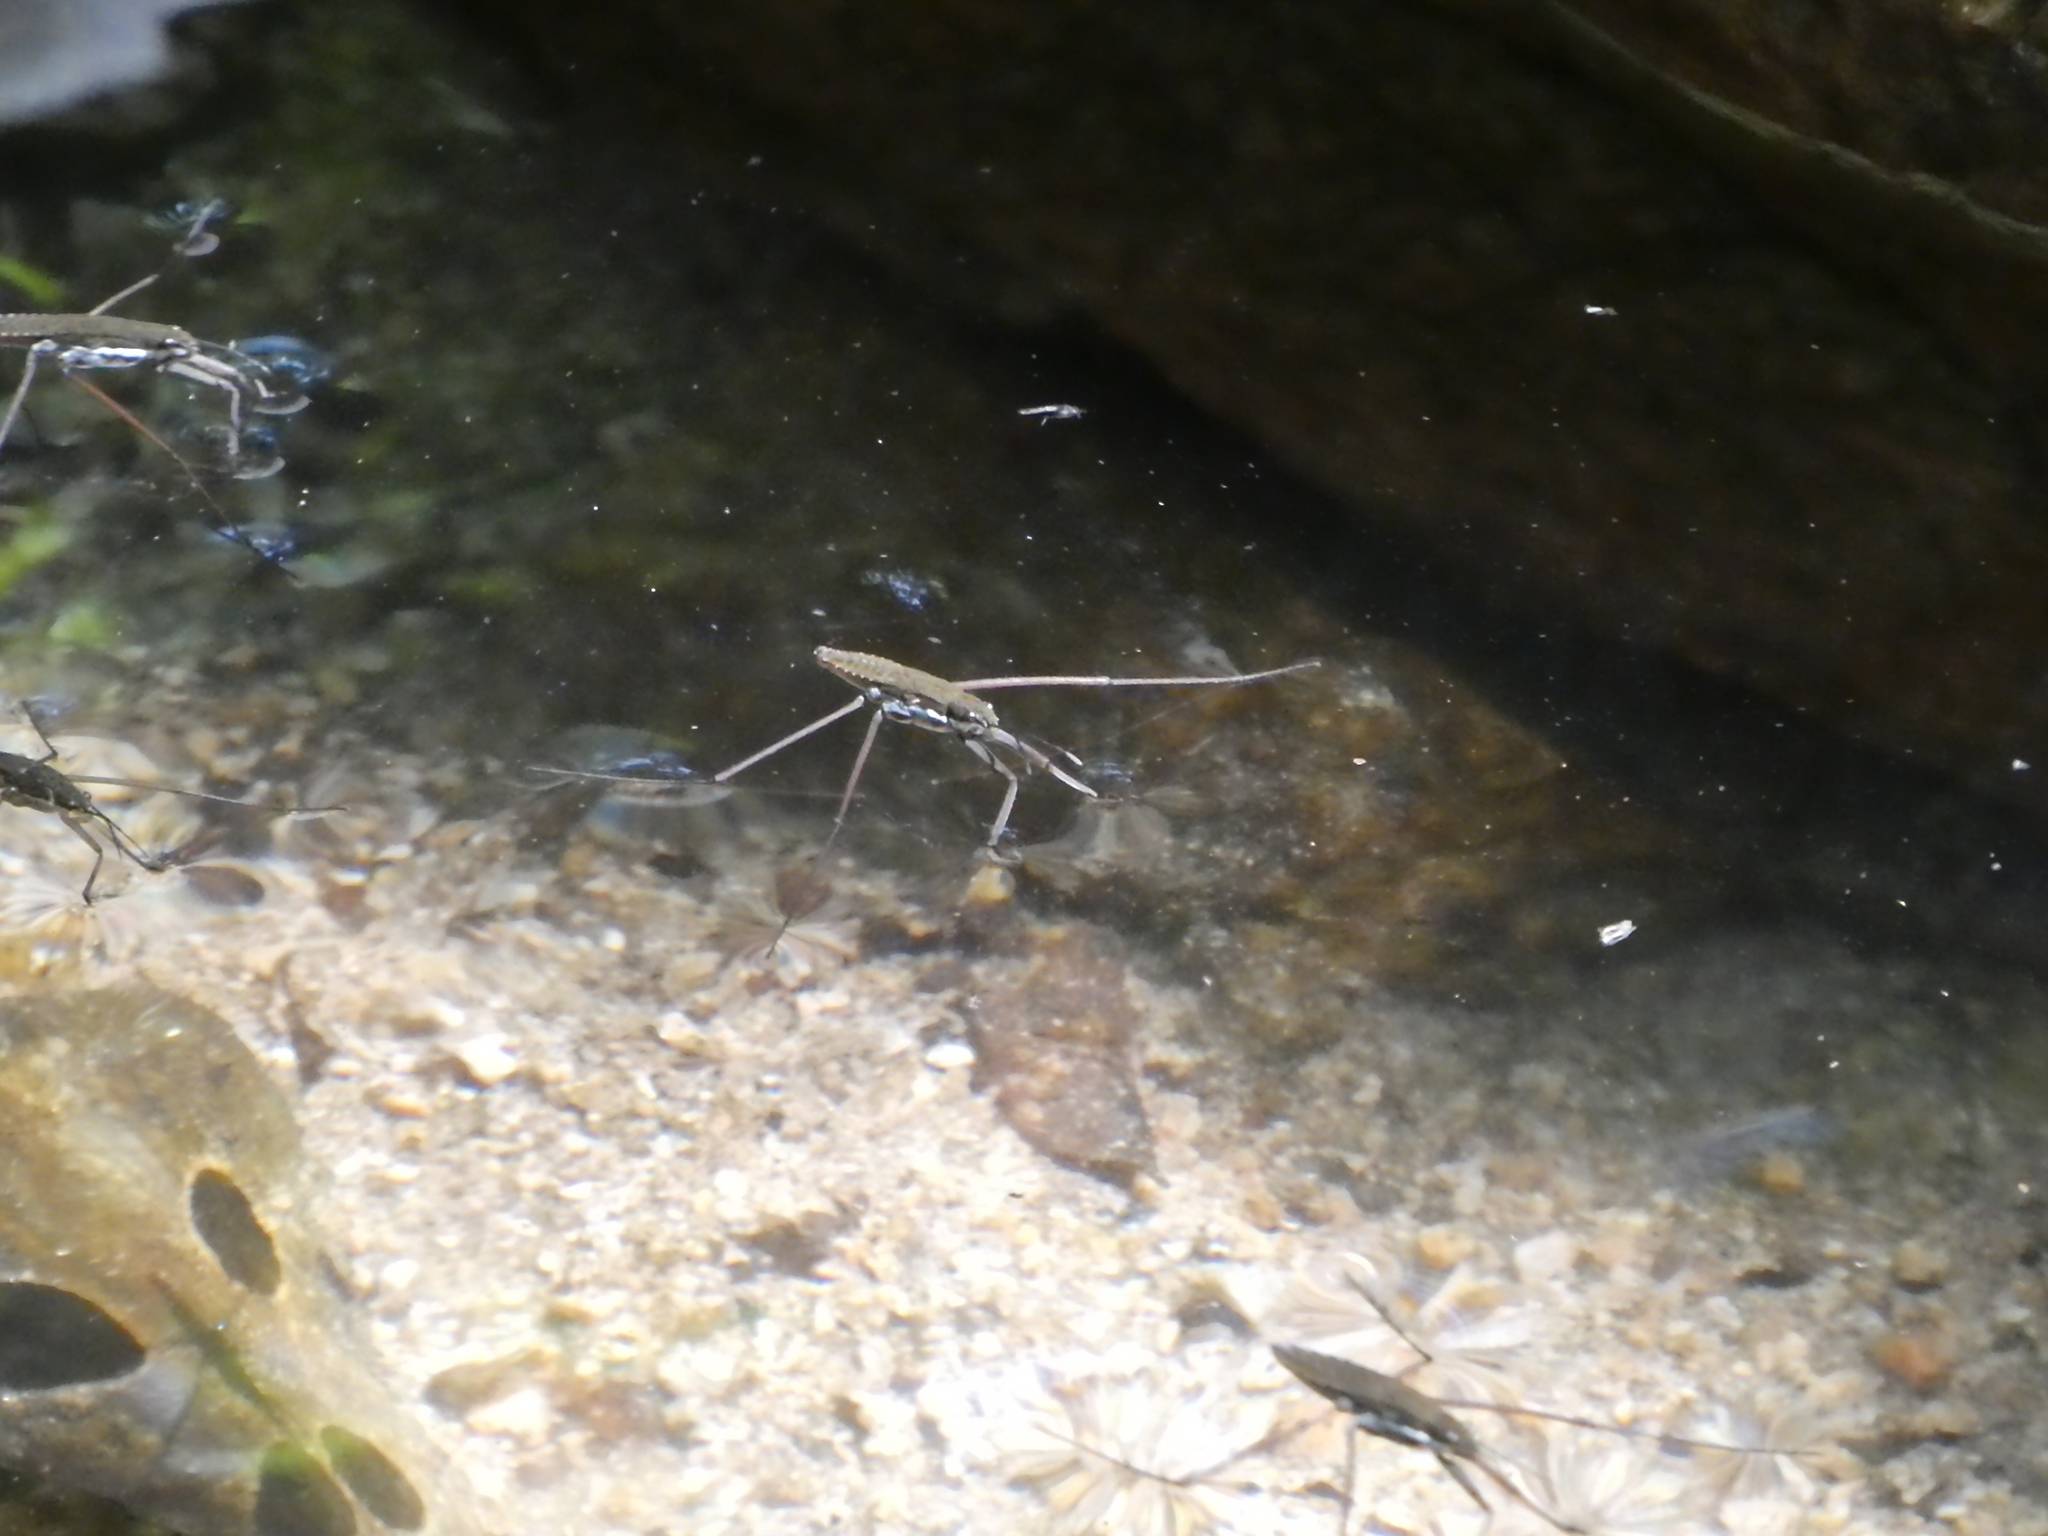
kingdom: Animalia
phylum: Arthropoda
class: Insecta
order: Hemiptera
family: Gerridae
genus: Aquarius
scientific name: Aquarius remigis
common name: Common water strider
